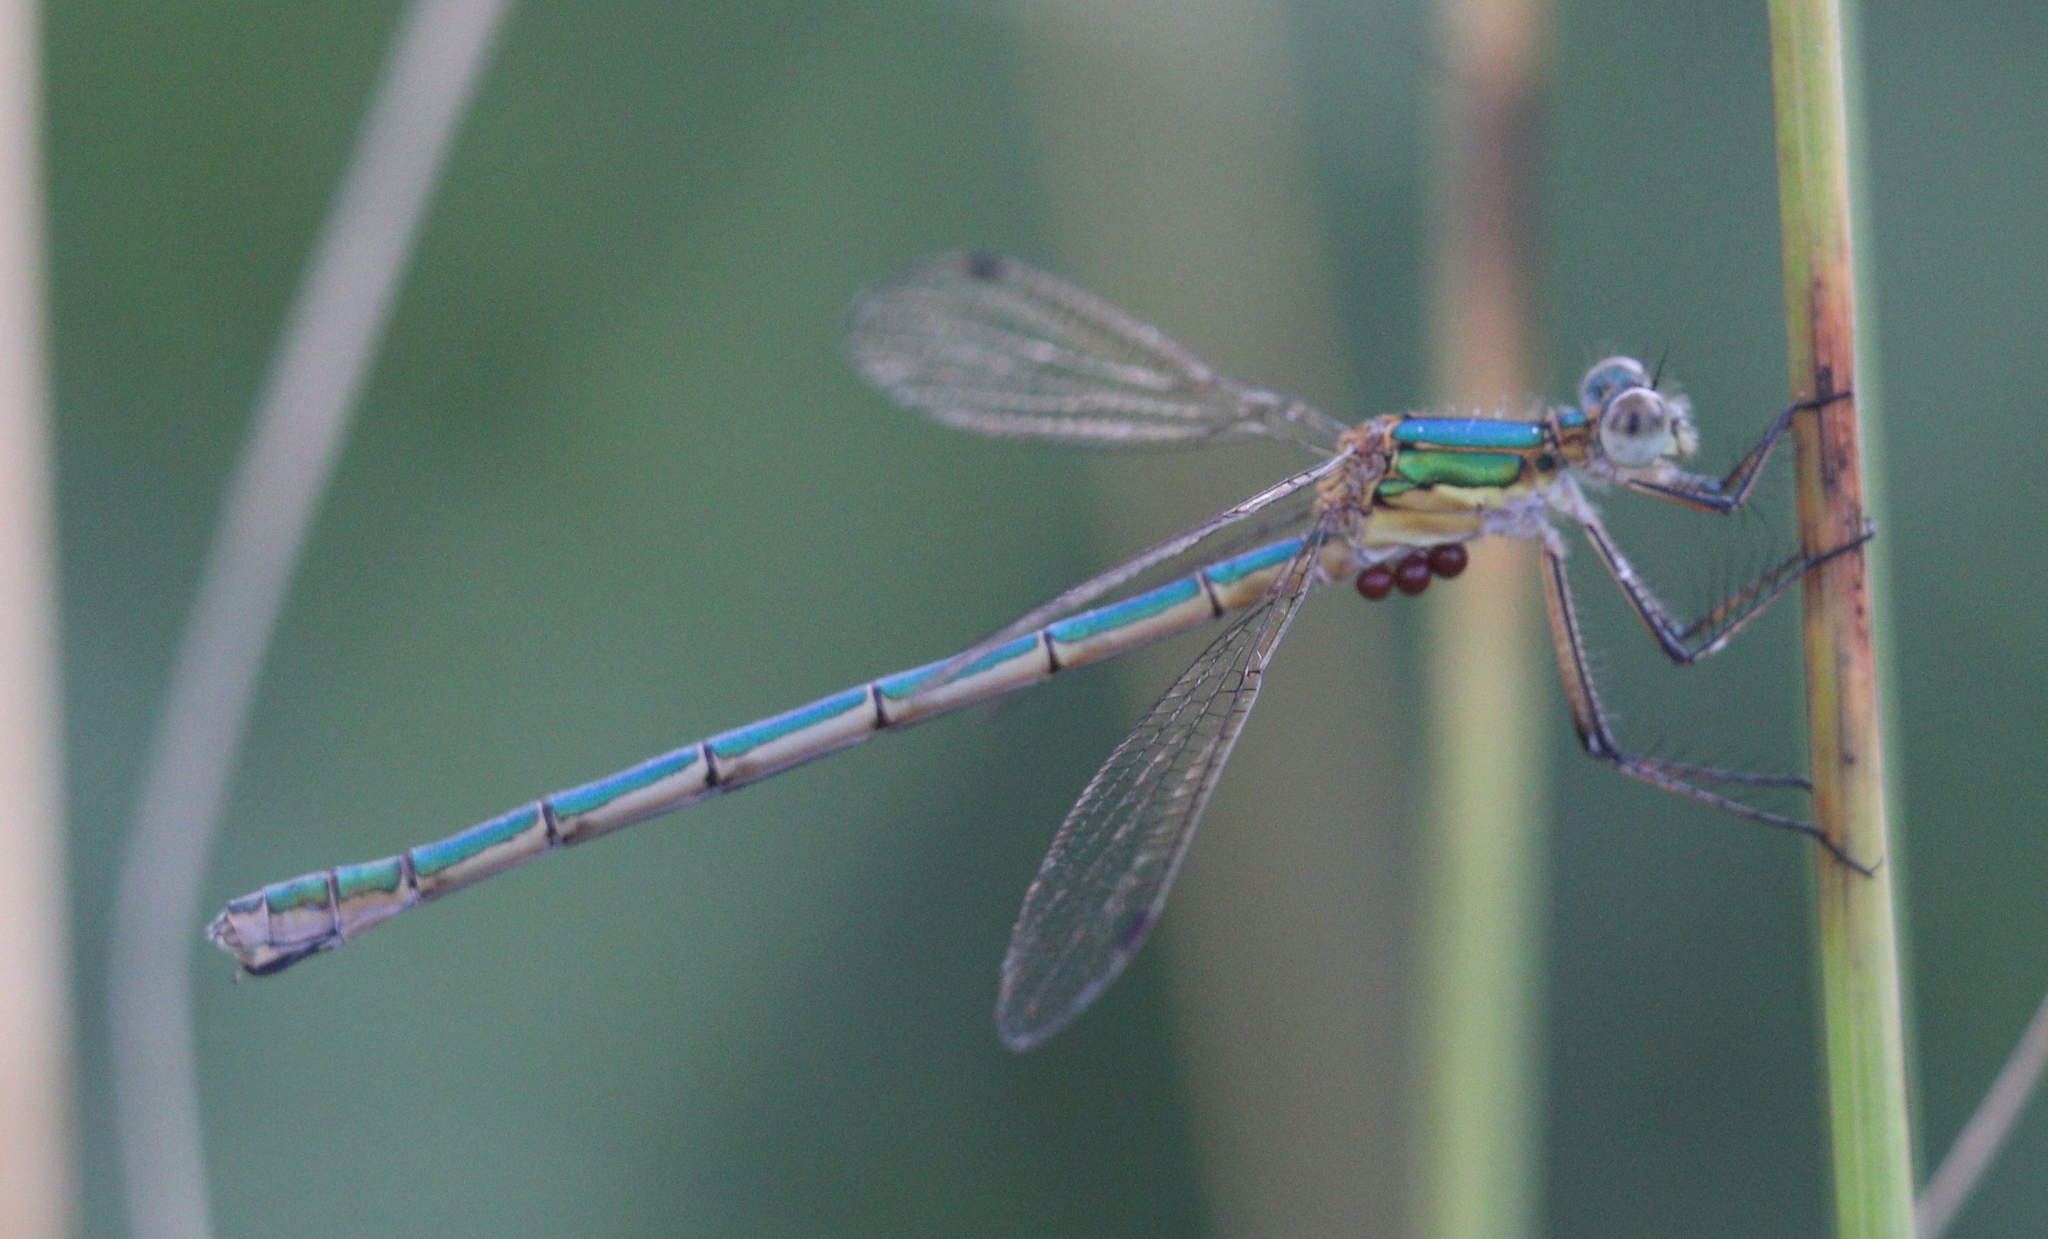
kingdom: Animalia
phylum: Arthropoda
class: Insecta
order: Odonata
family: Lestidae
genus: Lestes
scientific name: Lestes sponsa
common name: Common spreadwing
